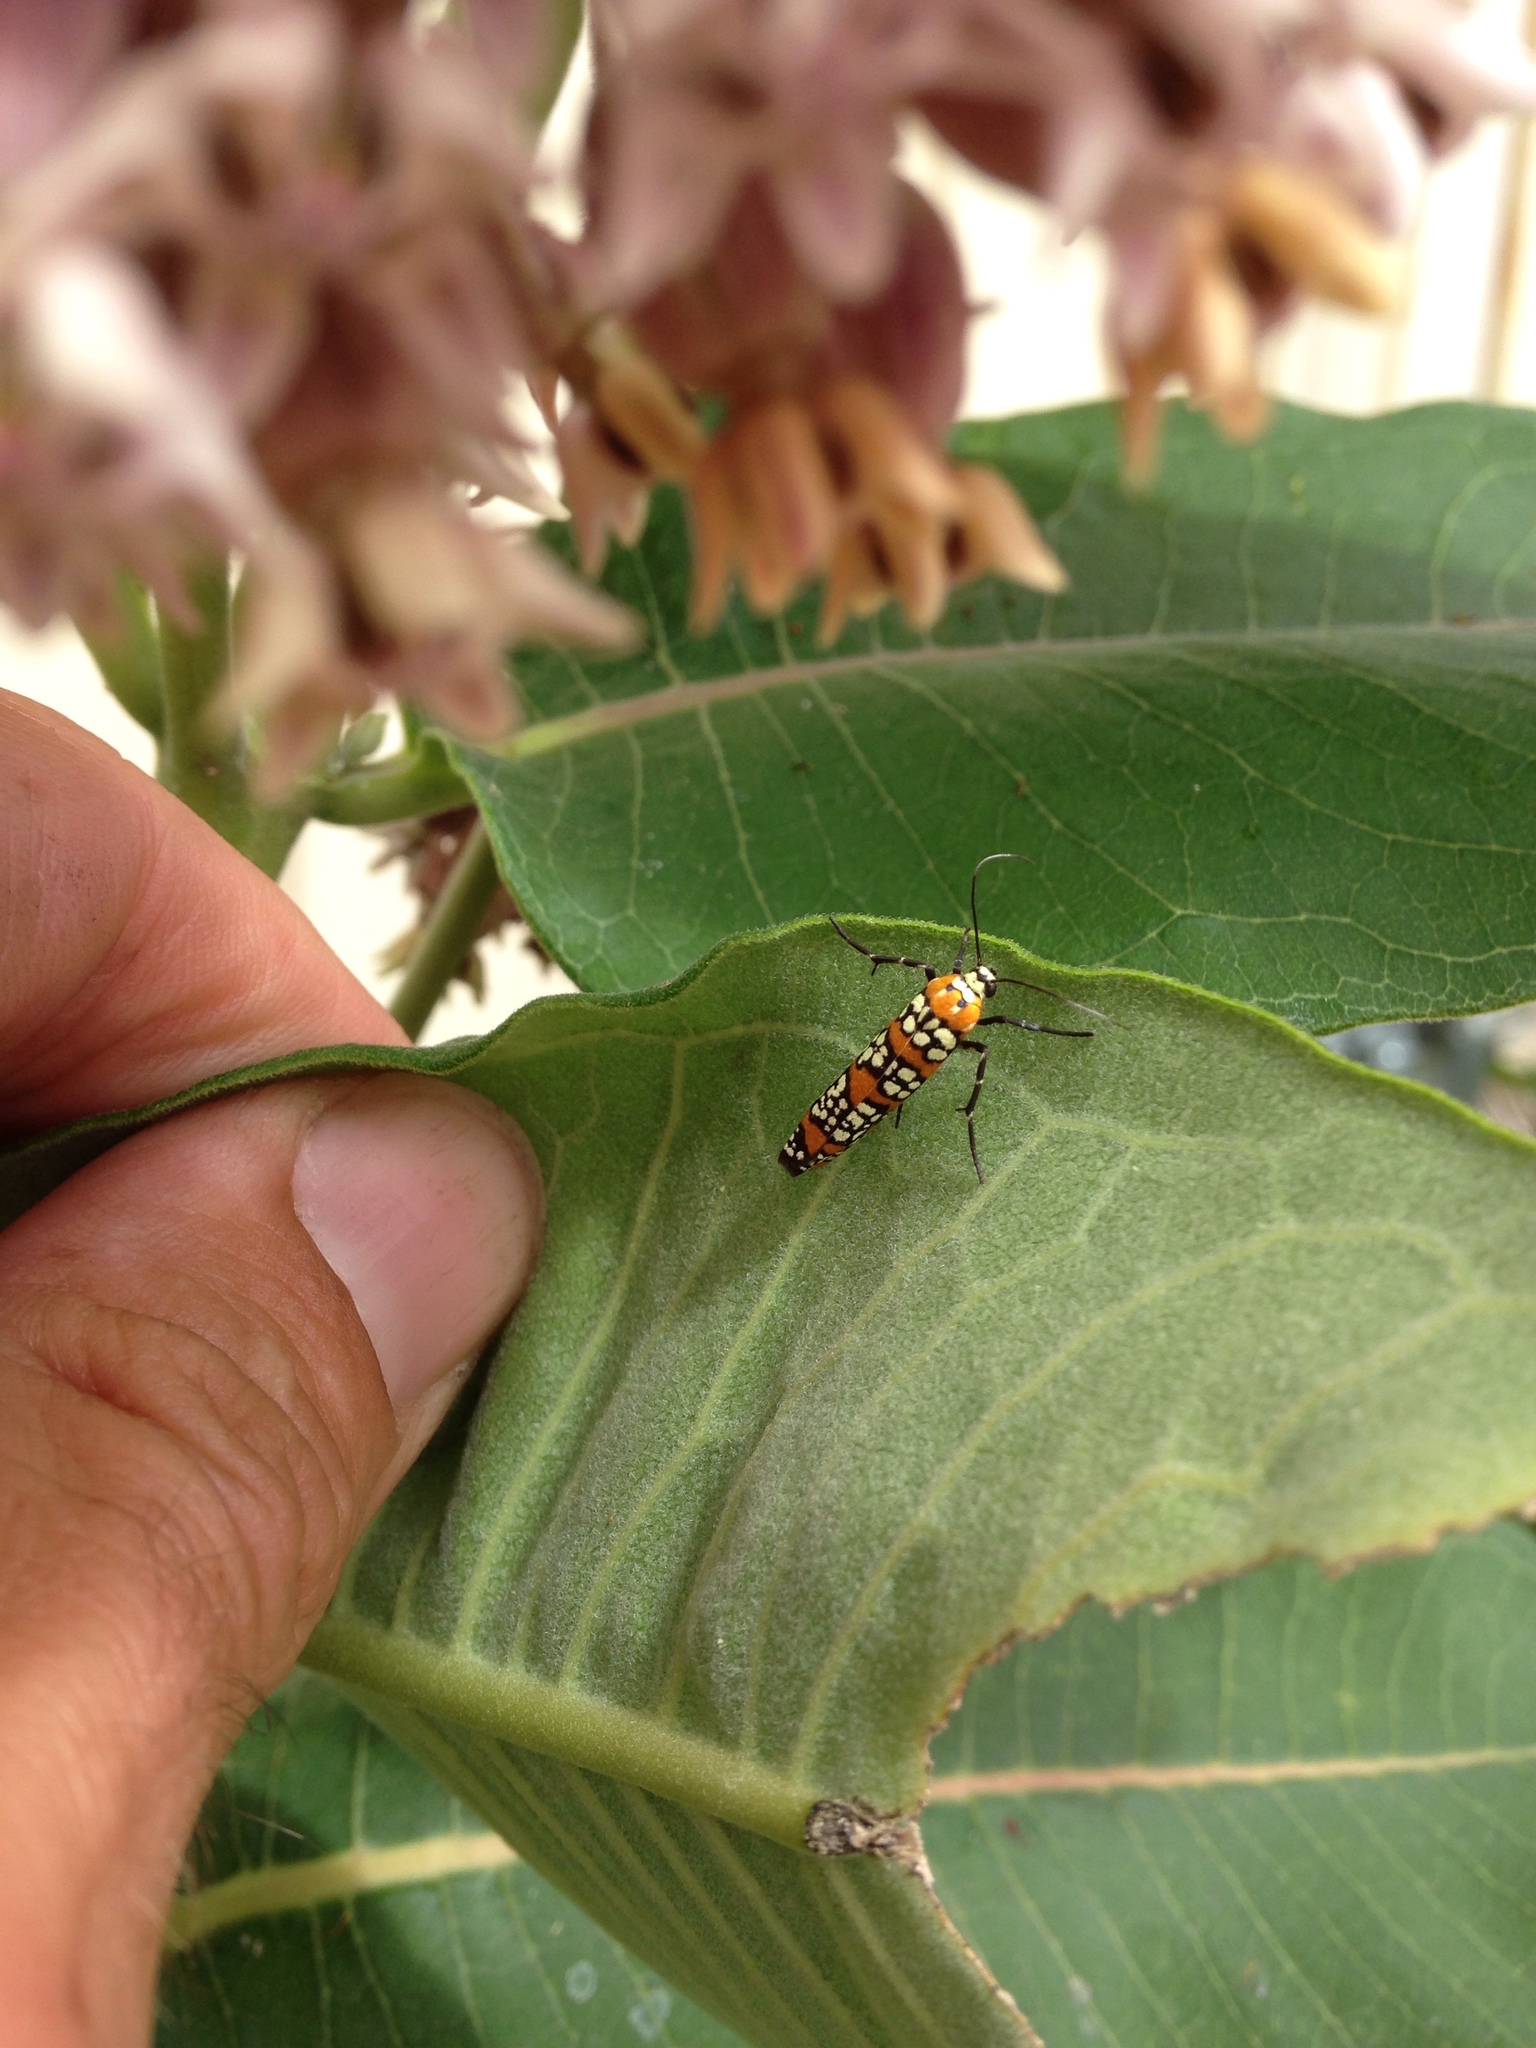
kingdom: Animalia
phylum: Arthropoda
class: Insecta
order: Lepidoptera
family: Attevidae
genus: Atteva
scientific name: Atteva punctella
